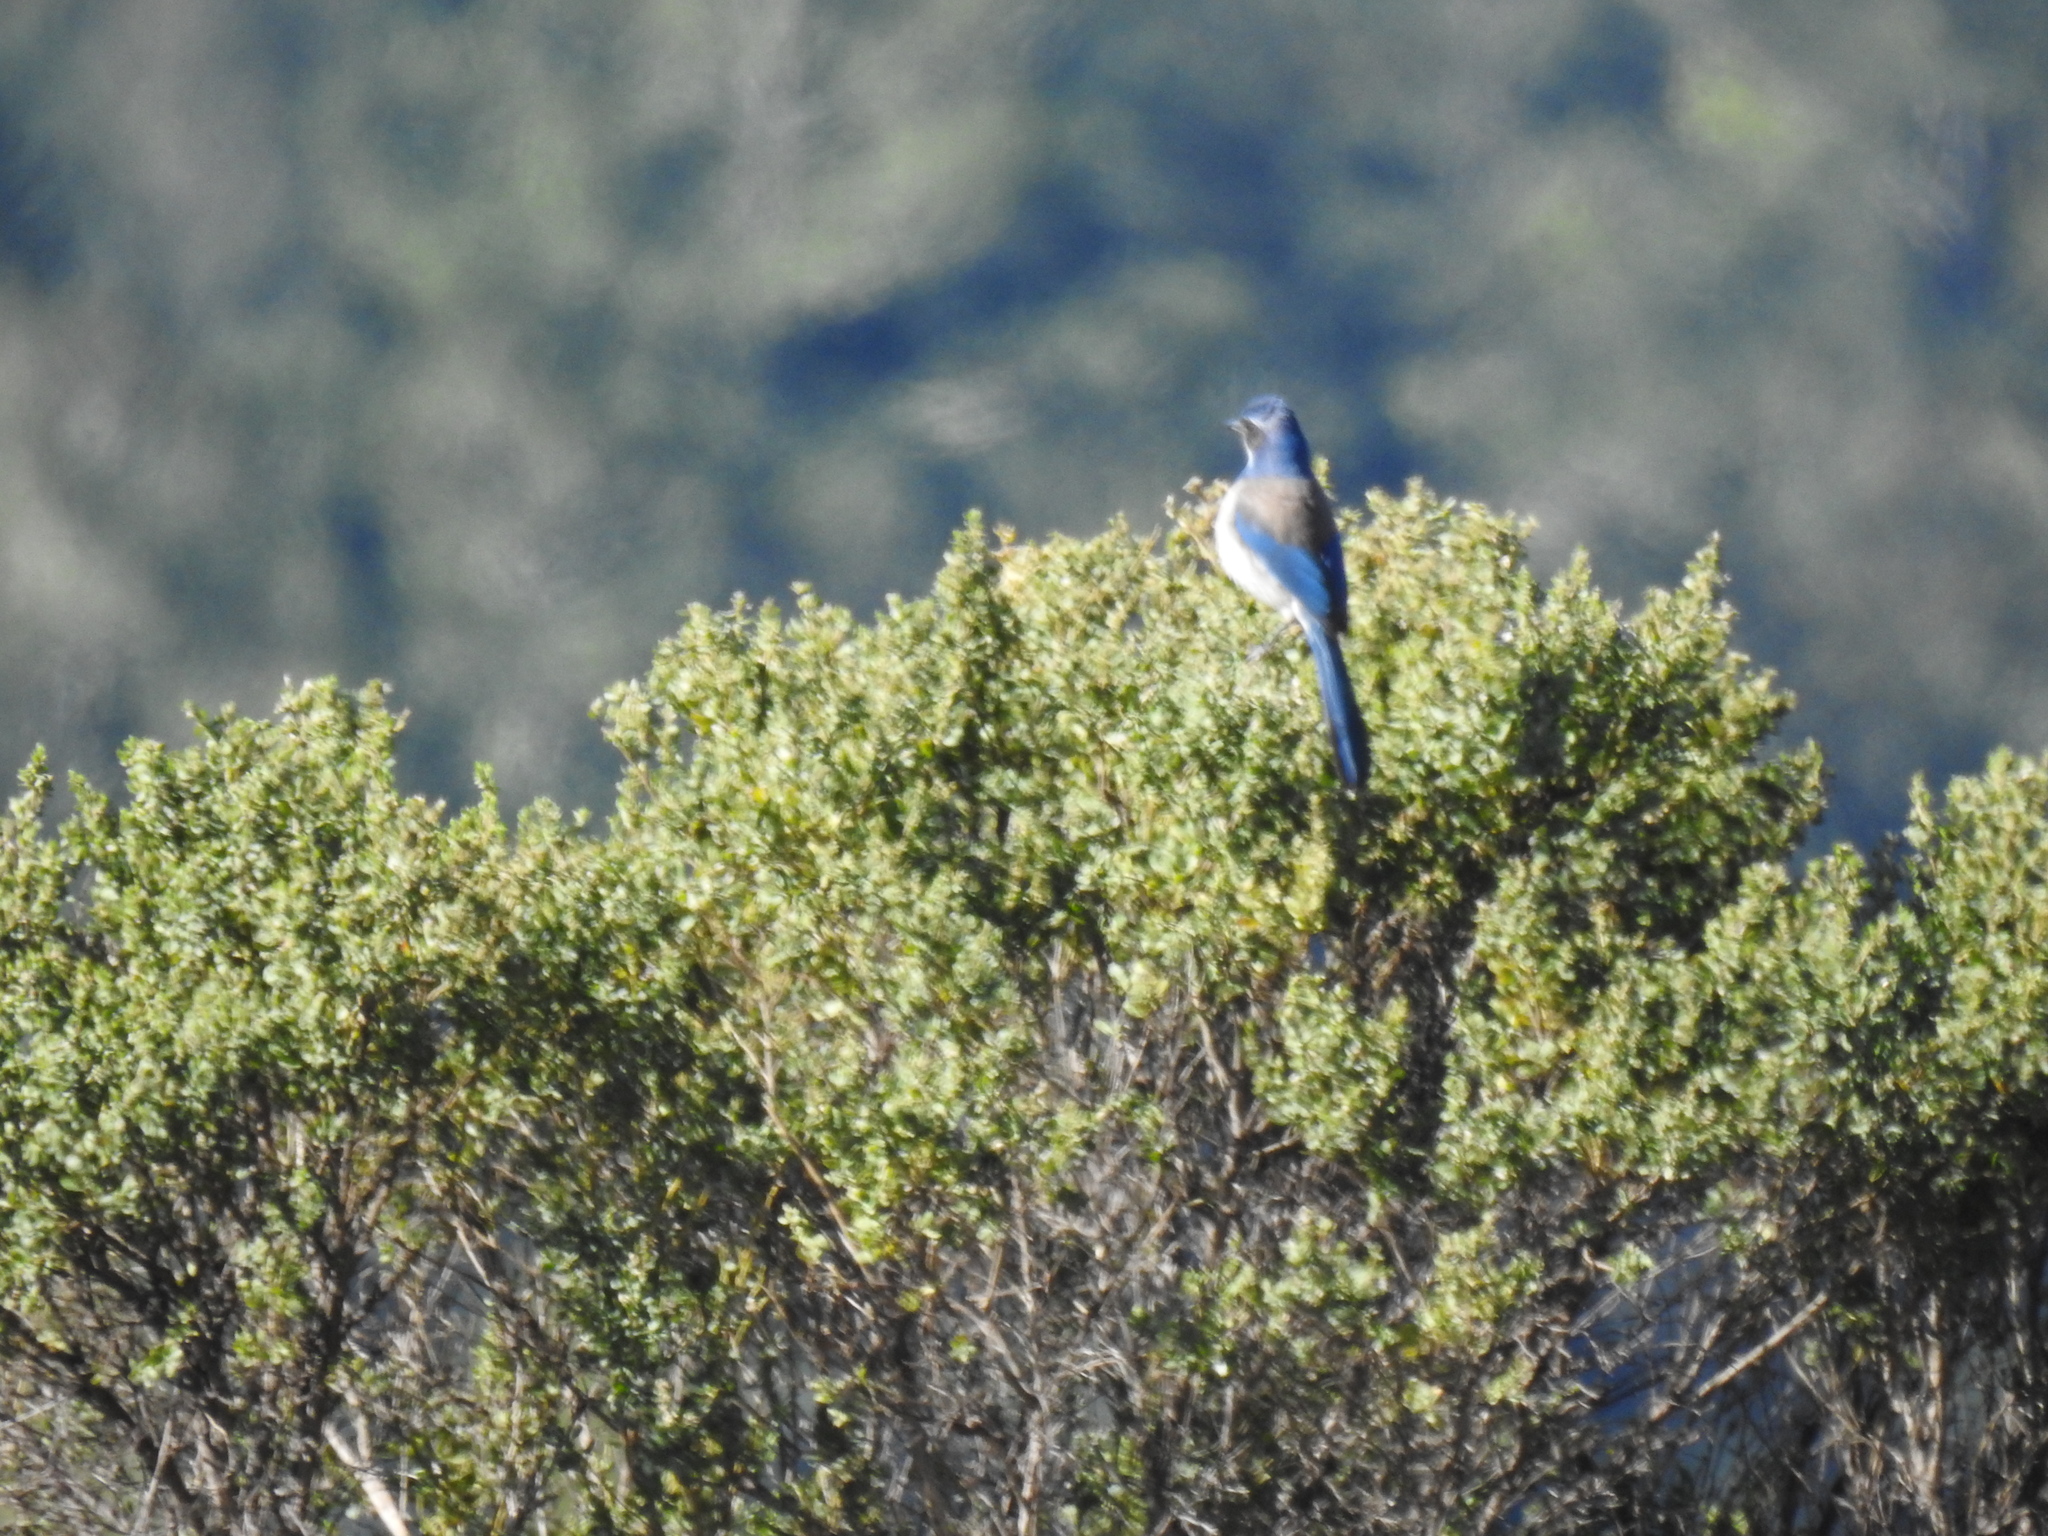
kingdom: Animalia
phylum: Chordata
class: Aves
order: Passeriformes
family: Corvidae
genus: Aphelocoma
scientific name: Aphelocoma californica
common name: California scrub-jay
